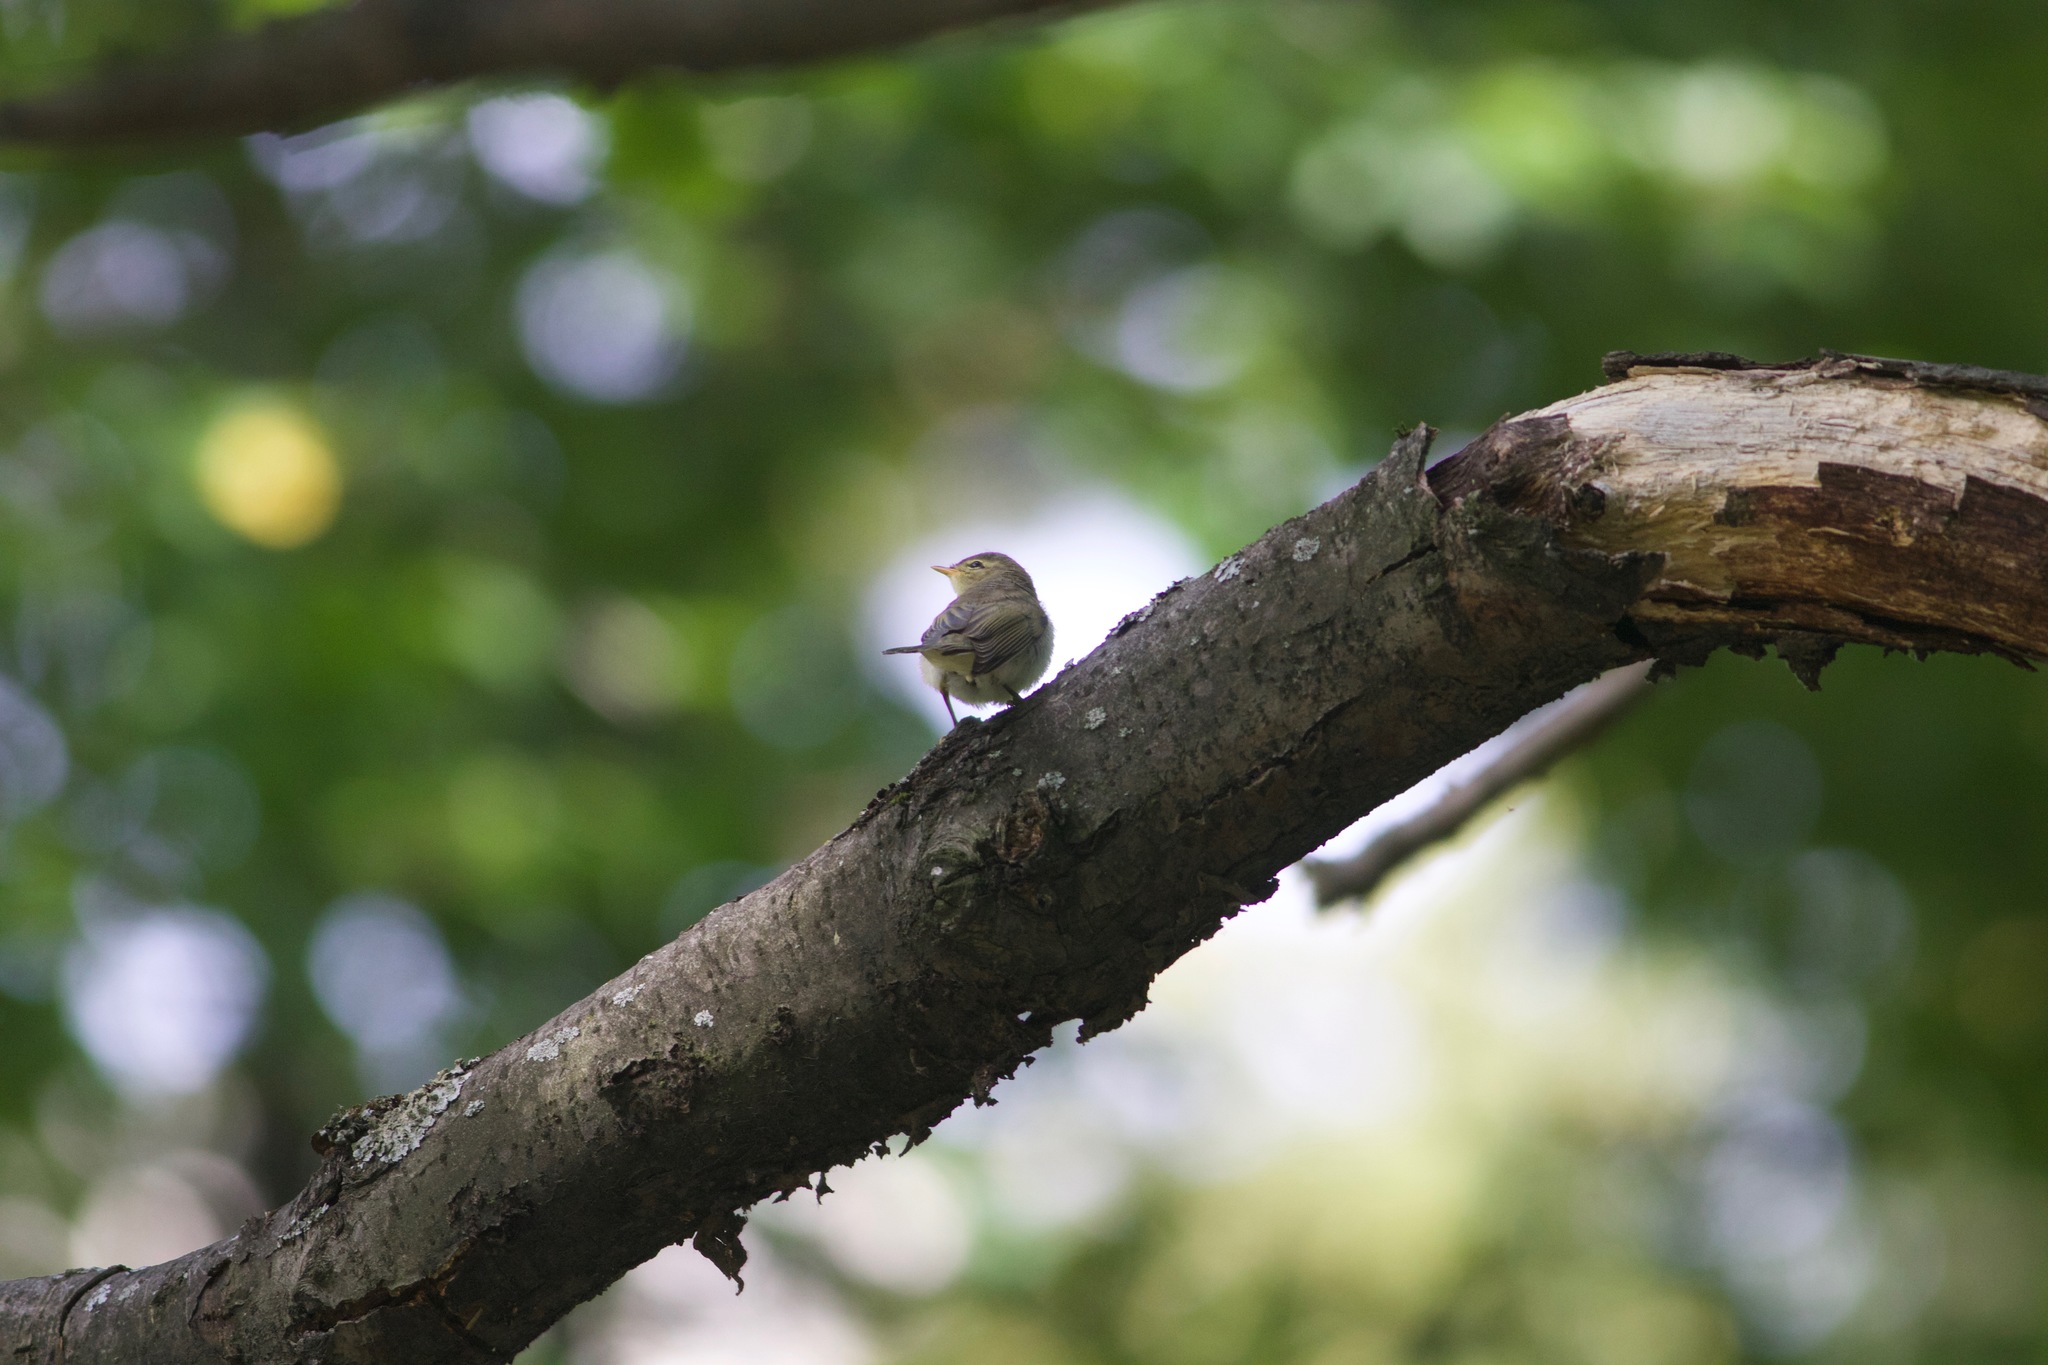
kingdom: Animalia
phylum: Chordata
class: Aves
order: Passeriformes
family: Phylloscopidae
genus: Phylloscopus
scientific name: Phylloscopus trochilus
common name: Willow warbler
